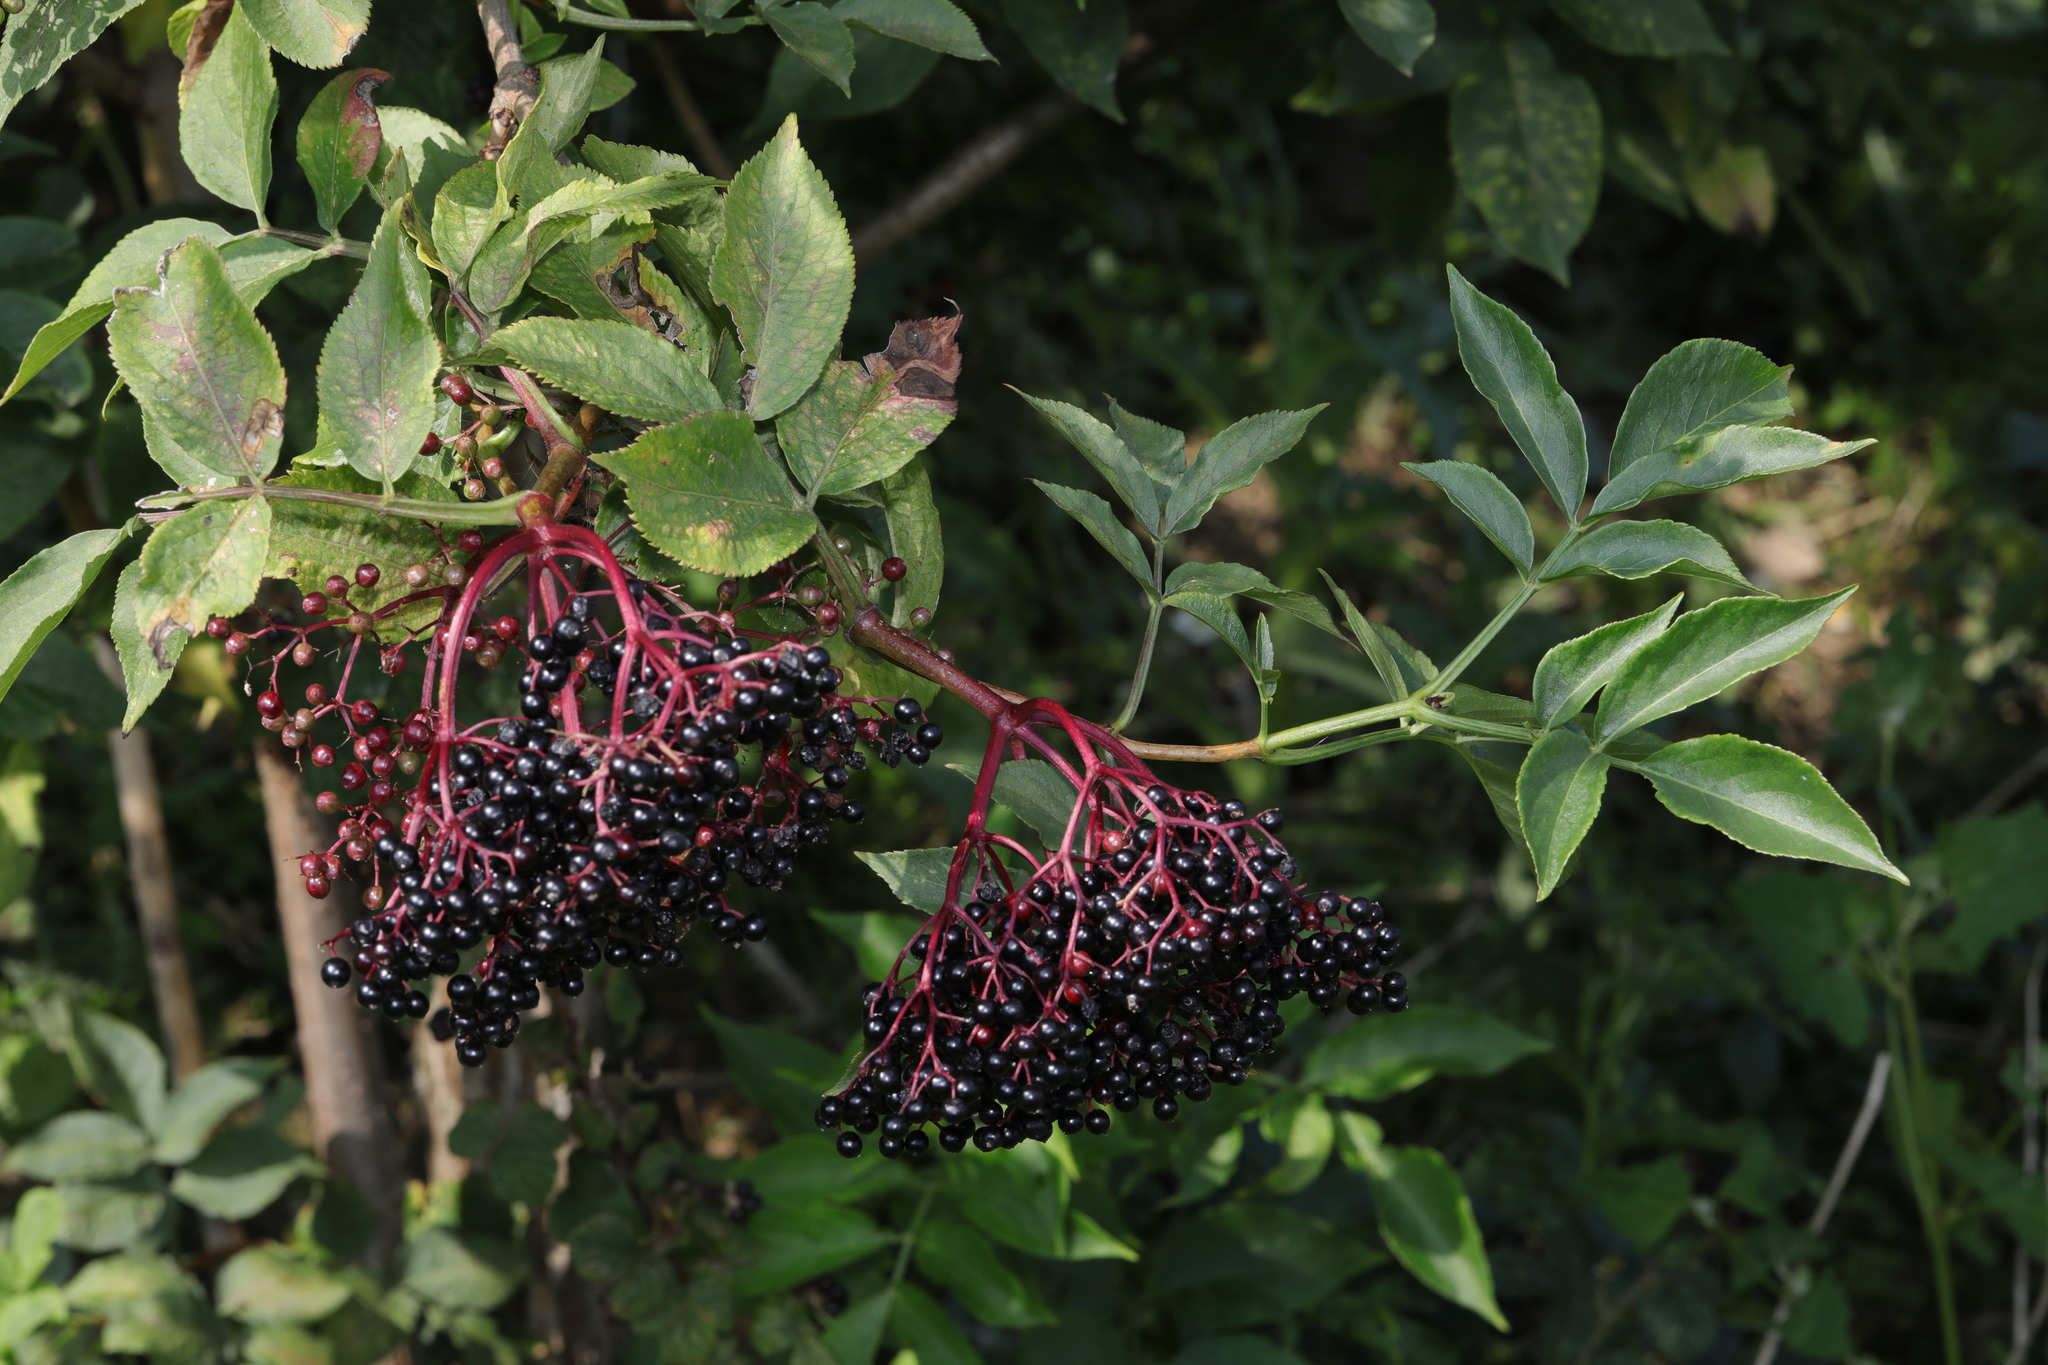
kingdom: Plantae
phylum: Tracheophyta
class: Magnoliopsida
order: Dipsacales
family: Viburnaceae
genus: Sambucus
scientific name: Sambucus nigra
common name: Elder
